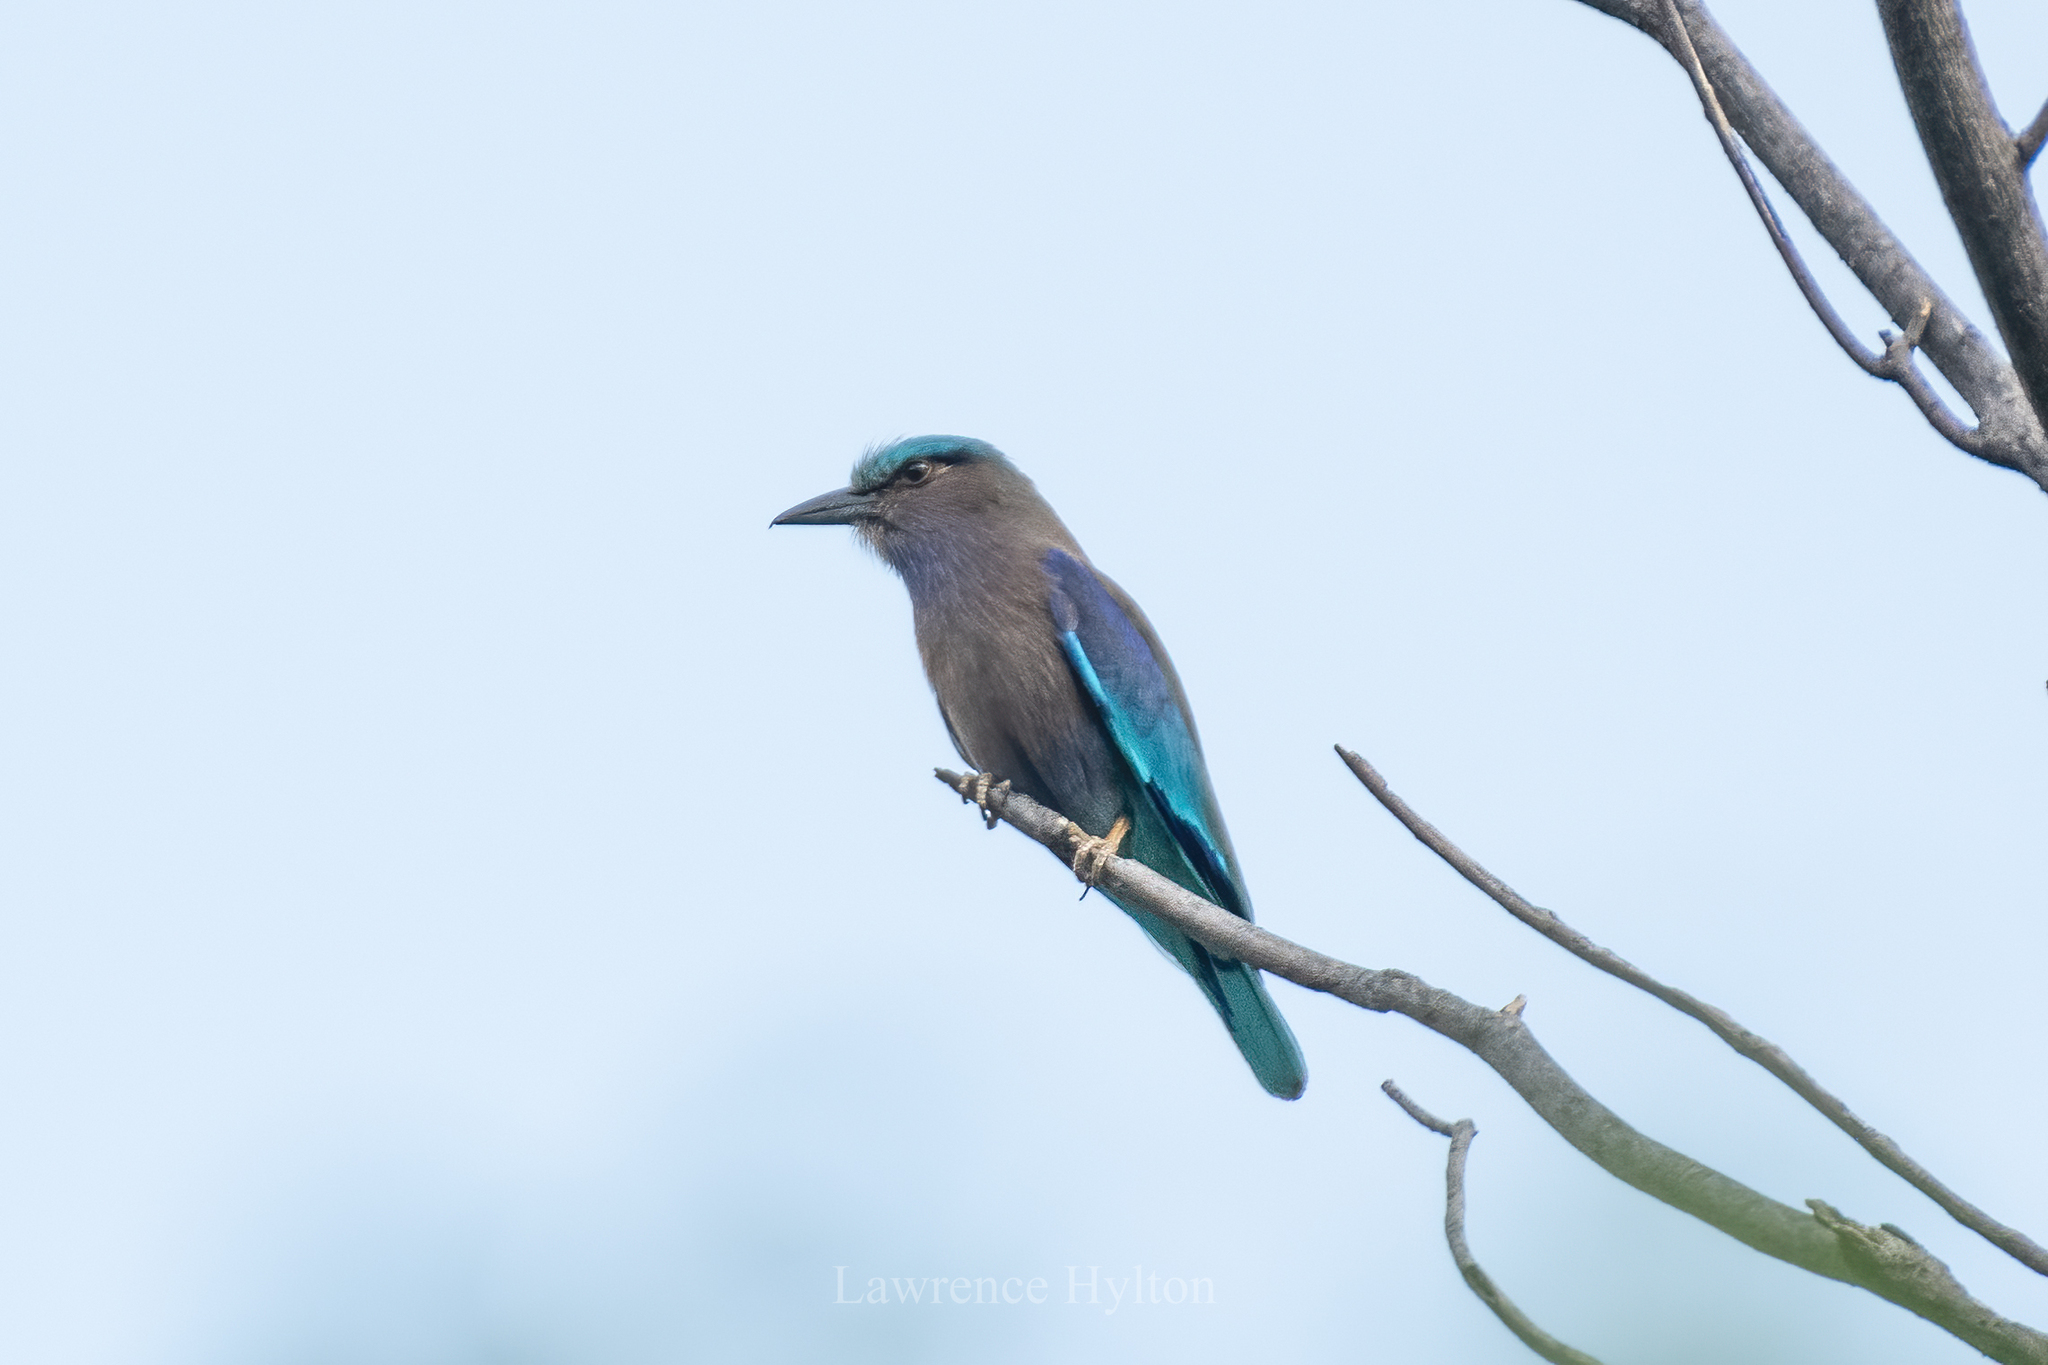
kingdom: Animalia
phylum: Chordata
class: Aves
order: Coraciiformes
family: Coraciidae
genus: Coracias
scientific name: Coracias affinis
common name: Indochinese roller
